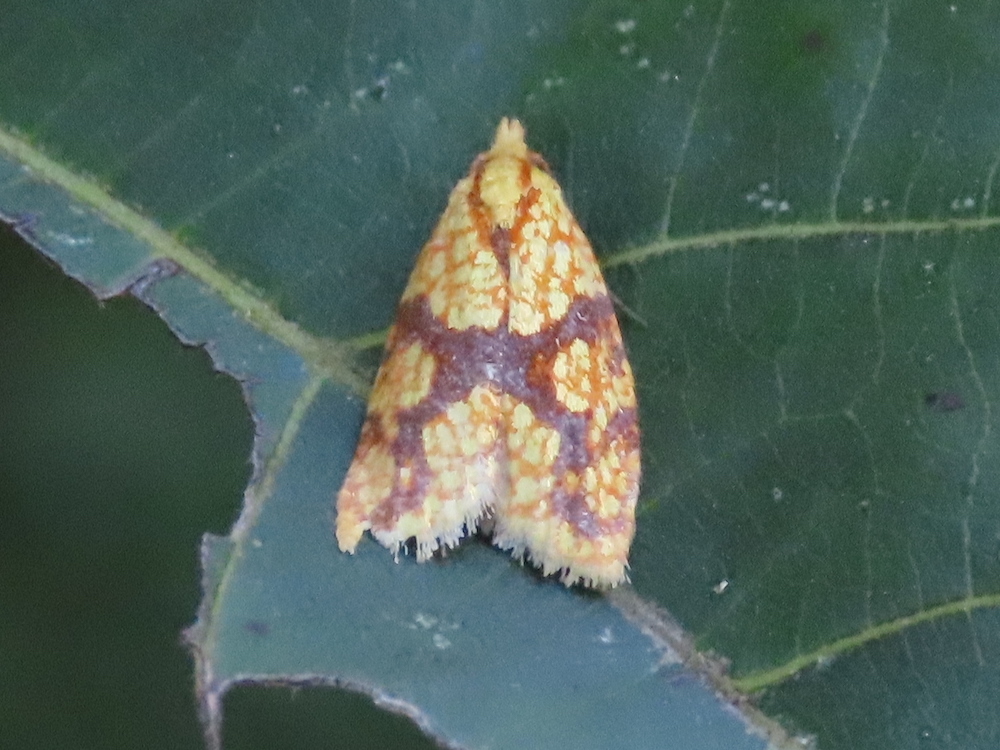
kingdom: Animalia
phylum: Arthropoda
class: Insecta
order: Lepidoptera
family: Tortricidae
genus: Sparganothis
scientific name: Sparganothis sulfureana
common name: Sparganothis fruitworm moth
